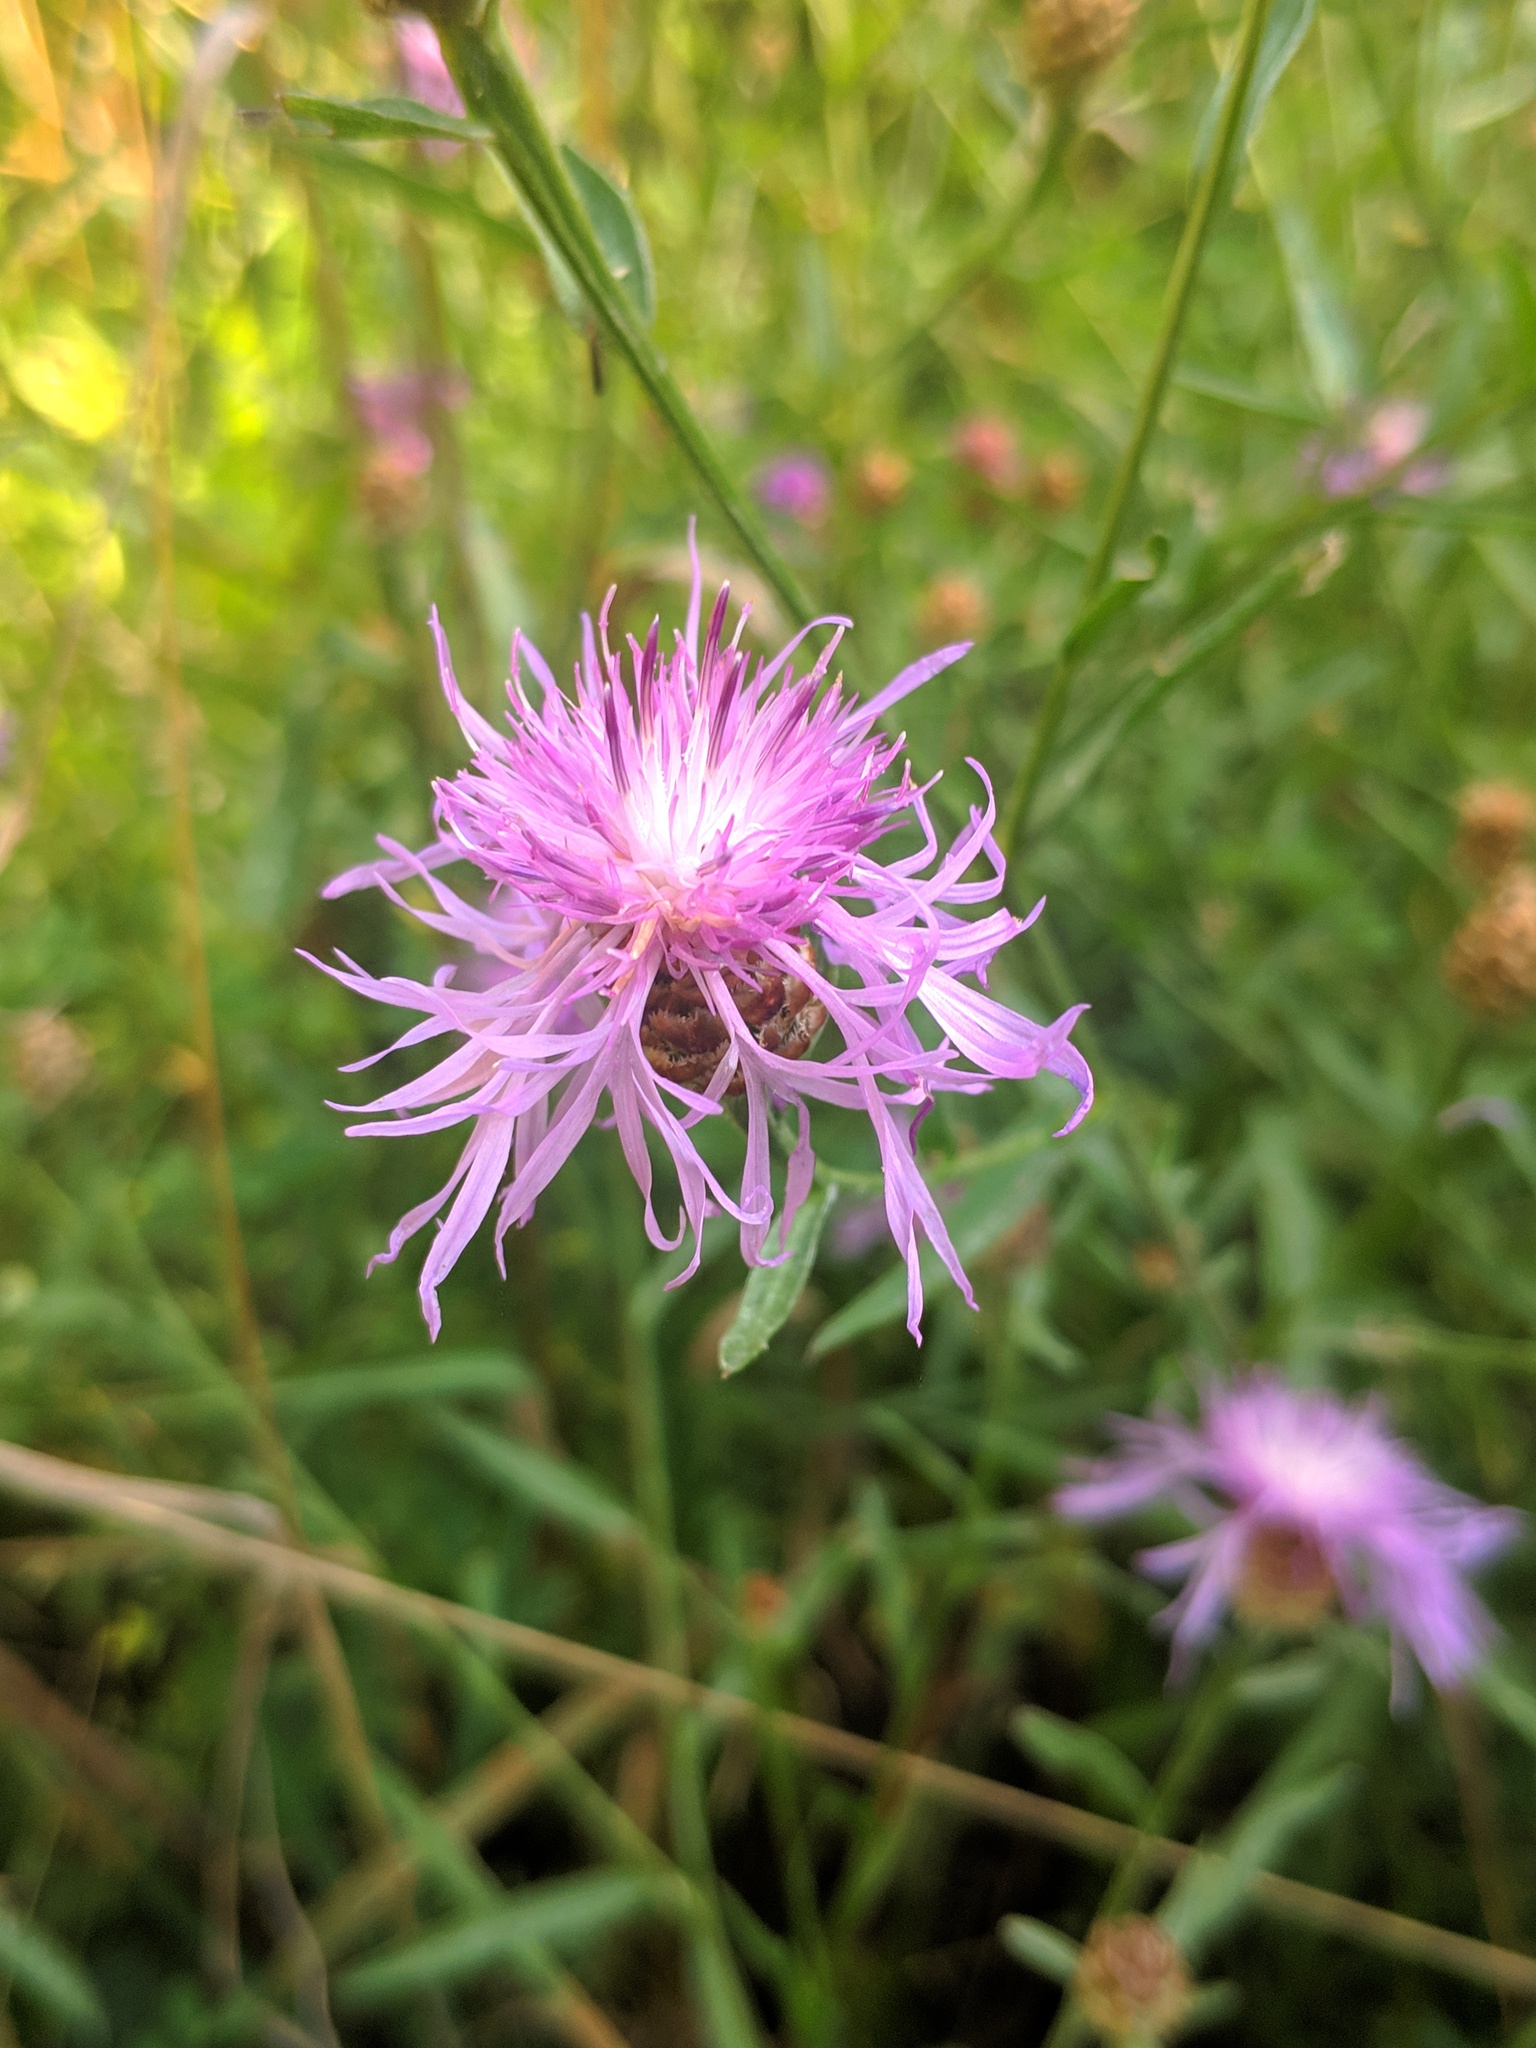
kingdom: Plantae
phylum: Tracheophyta
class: Magnoliopsida
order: Asterales
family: Asteraceae
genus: Centaurea
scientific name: Centaurea jacea
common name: Brown knapweed
